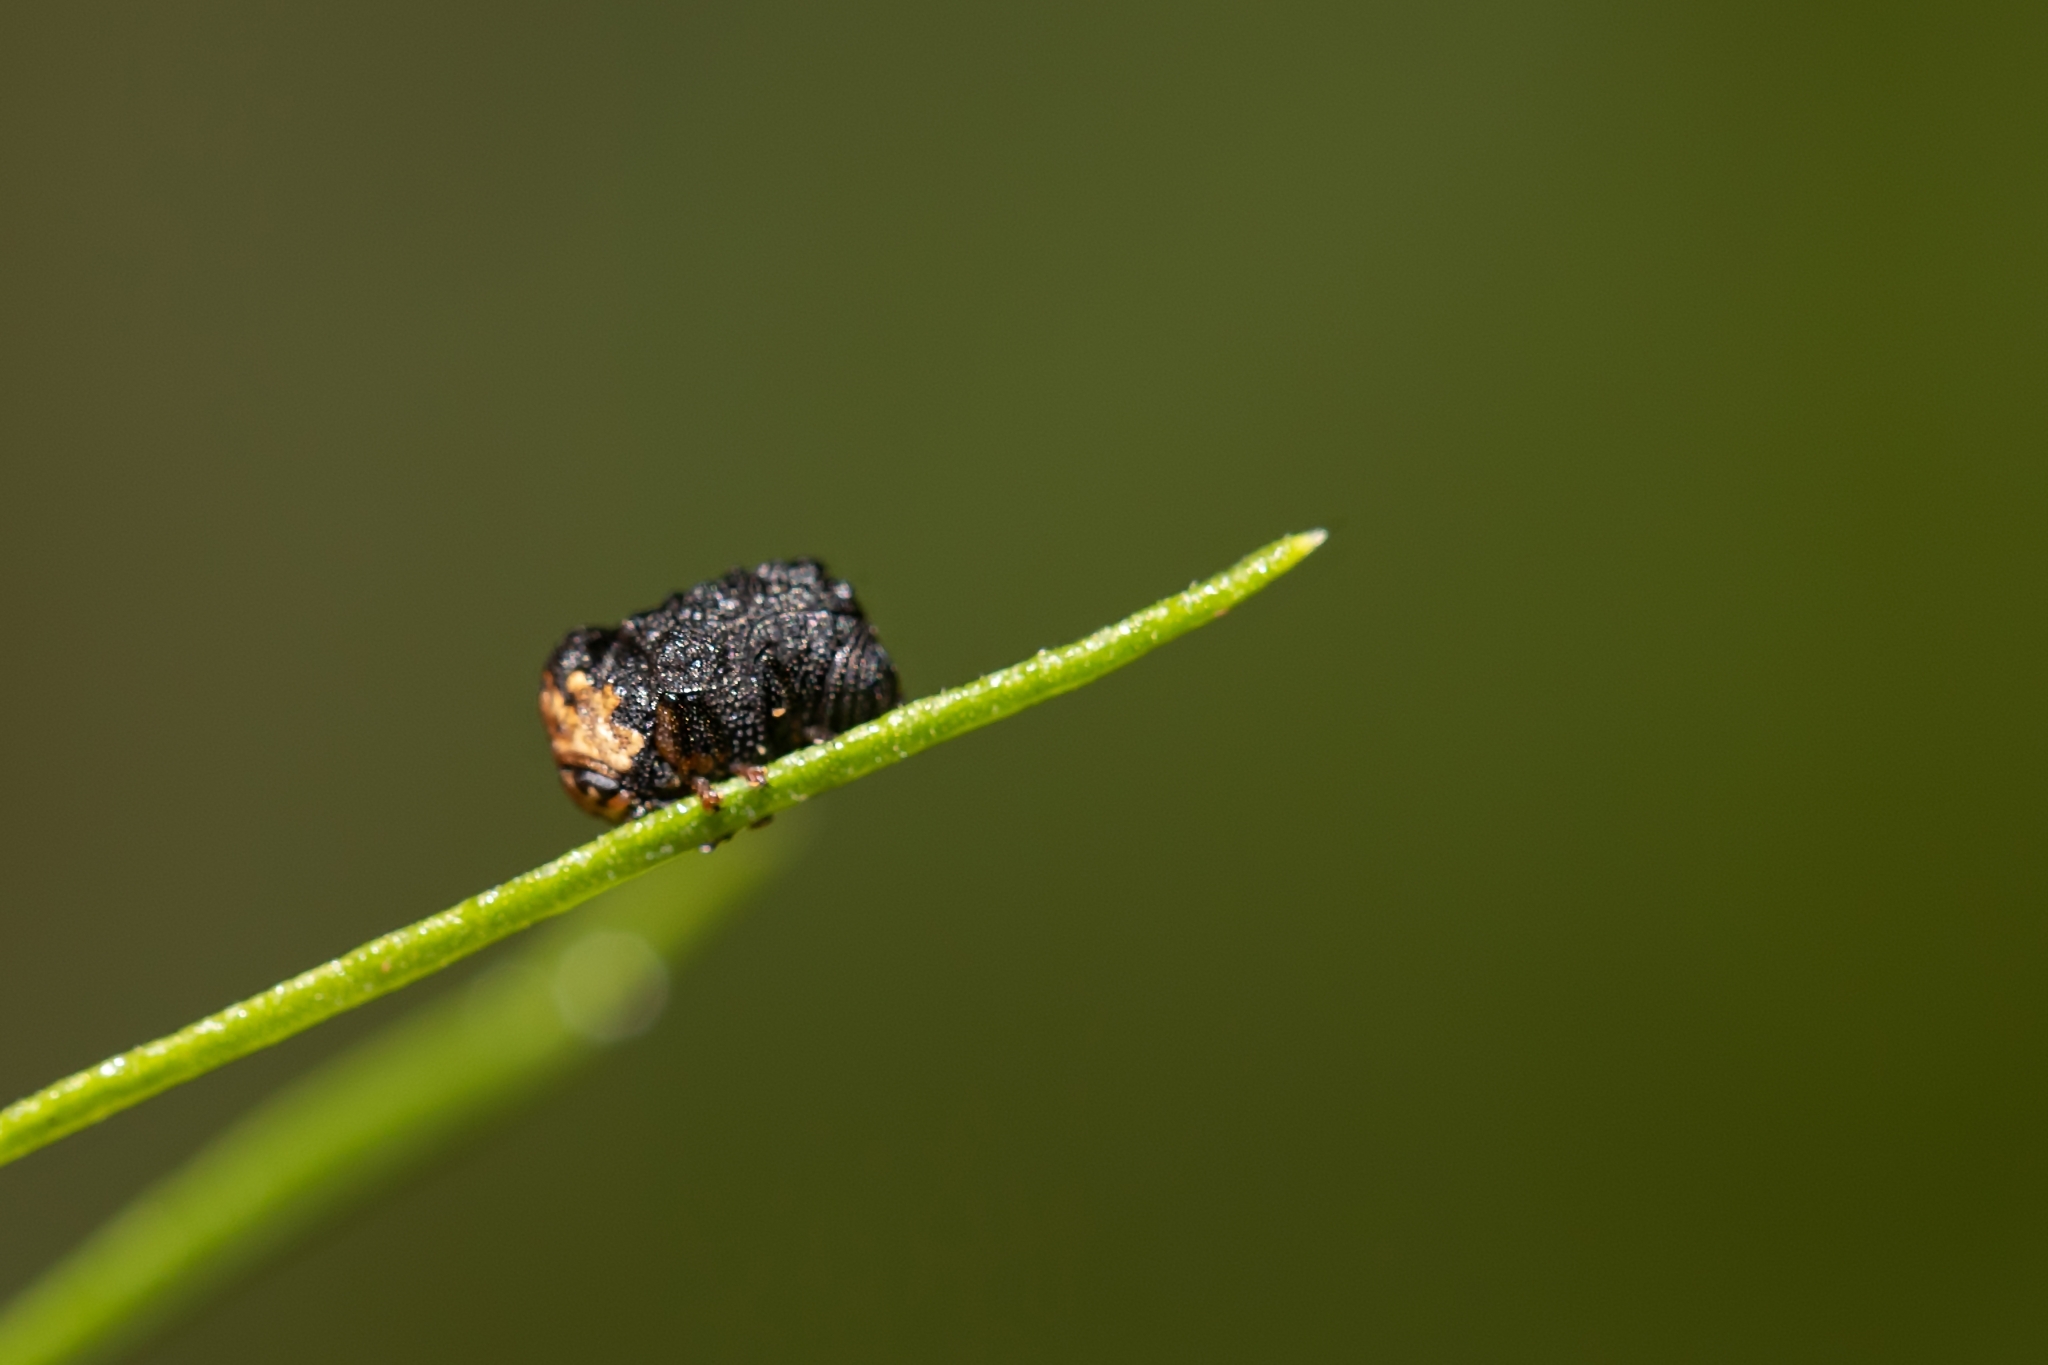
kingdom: Animalia
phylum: Arthropoda
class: Insecta
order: Coleoptera
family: Chrysomelidae
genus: Exema
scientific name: Exema neglecta
